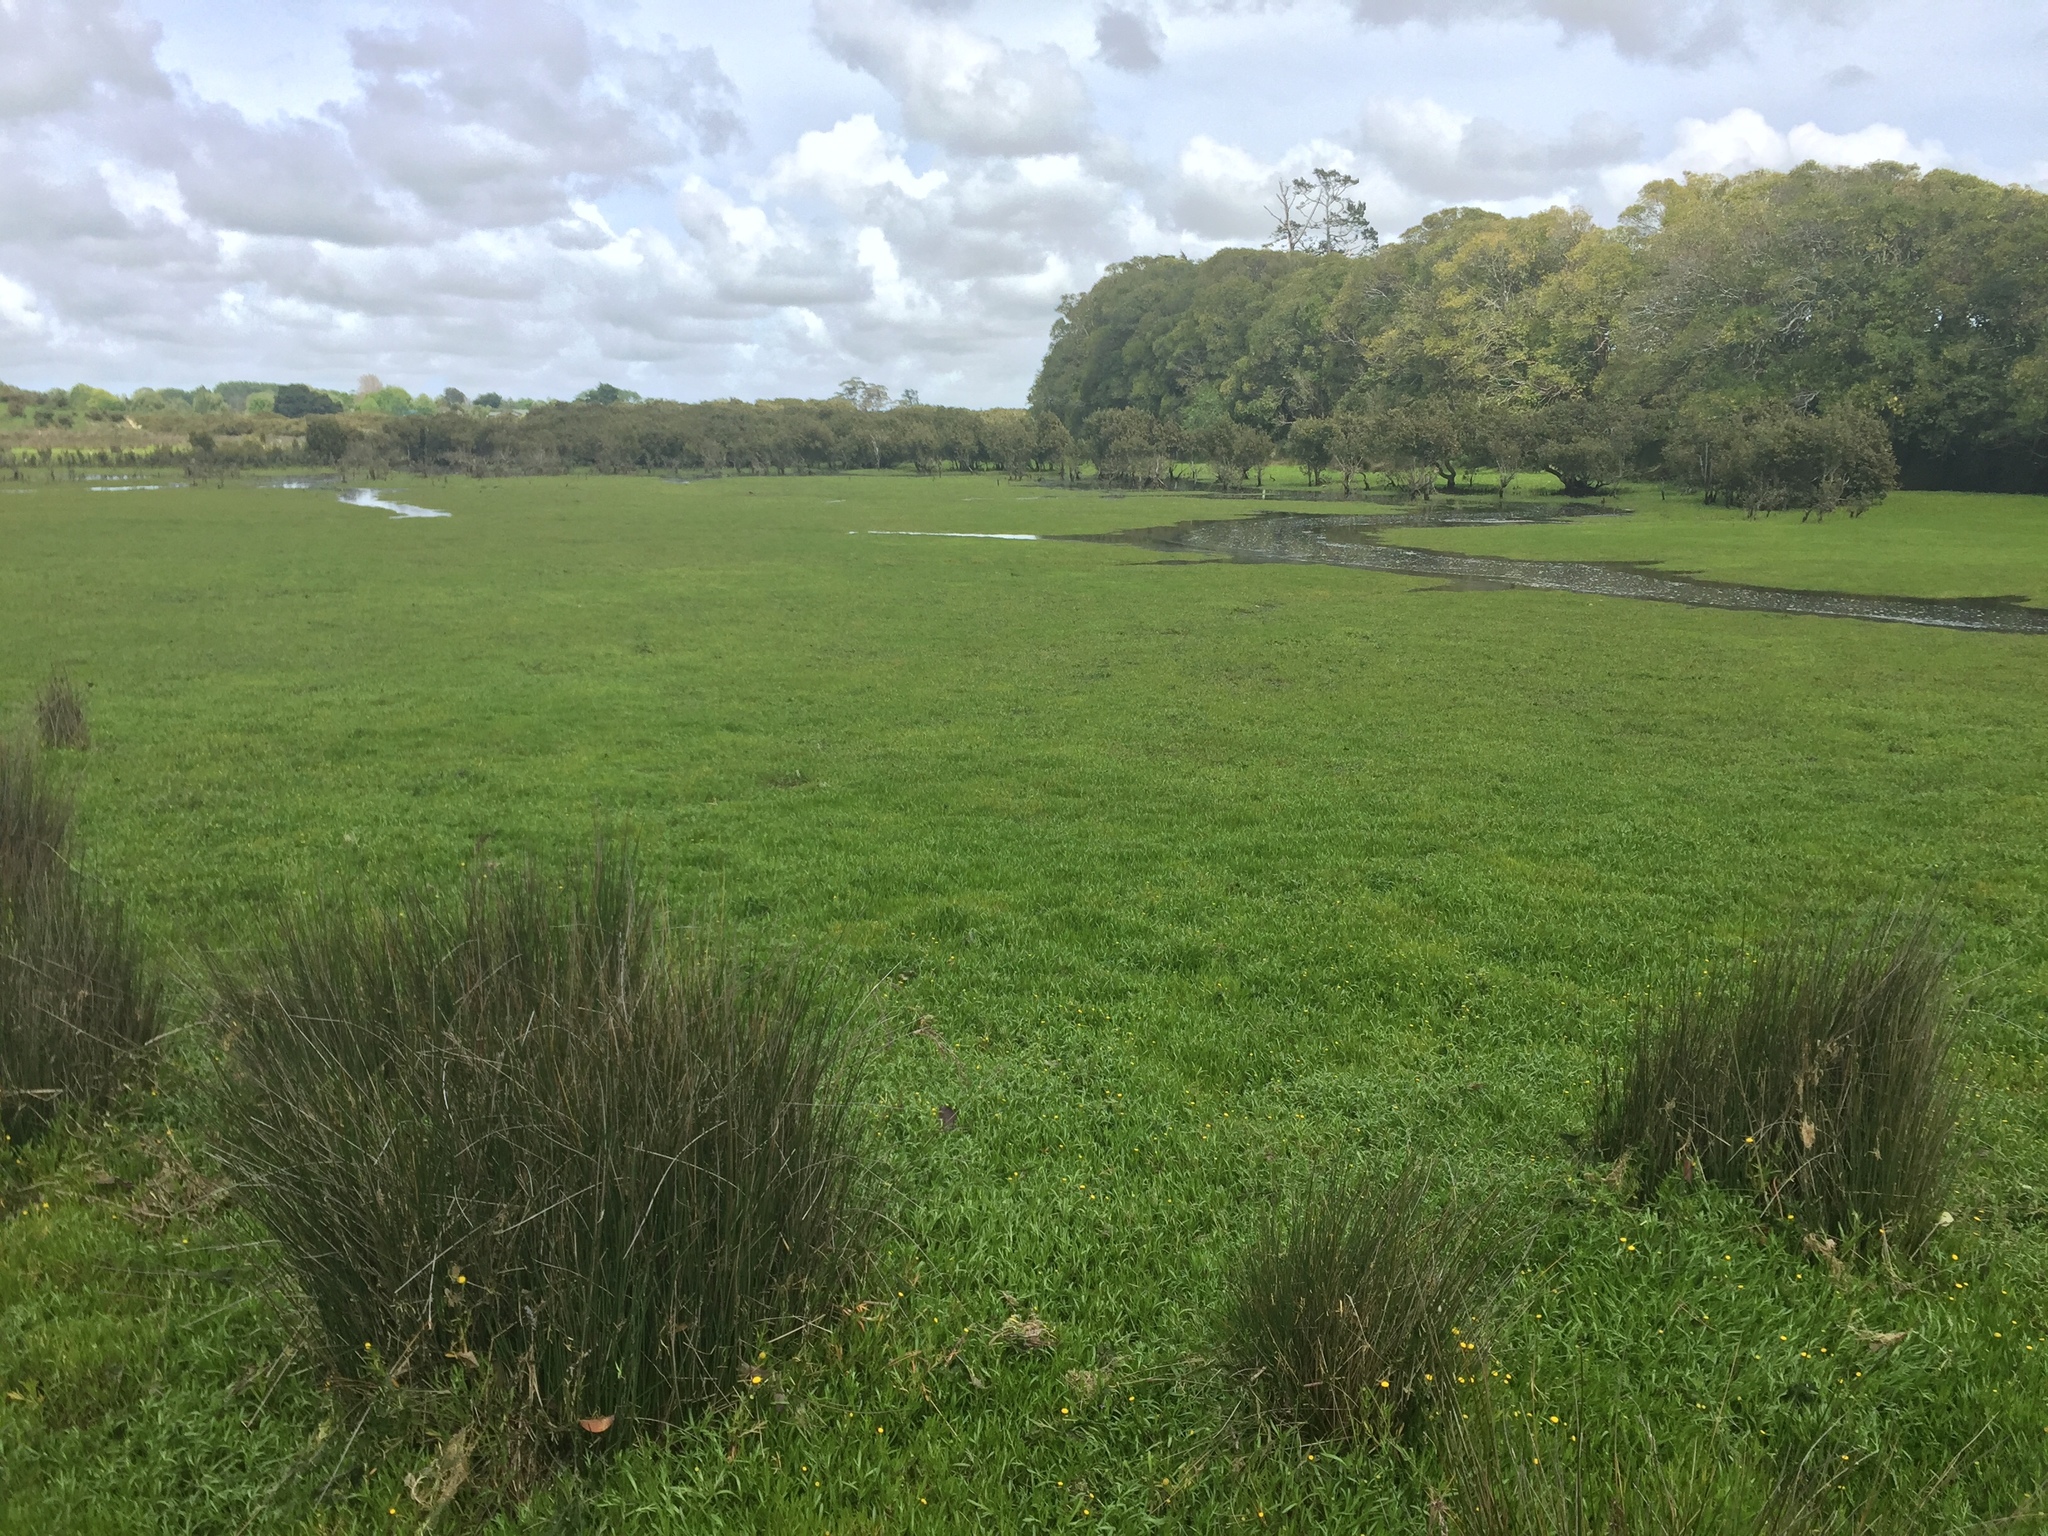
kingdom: Plantae
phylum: Tracheophyta
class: Magnoliopsida
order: Asterales
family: Asteraceae
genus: Cotula
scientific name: Cotula coronopifolia
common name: Buttonweed
